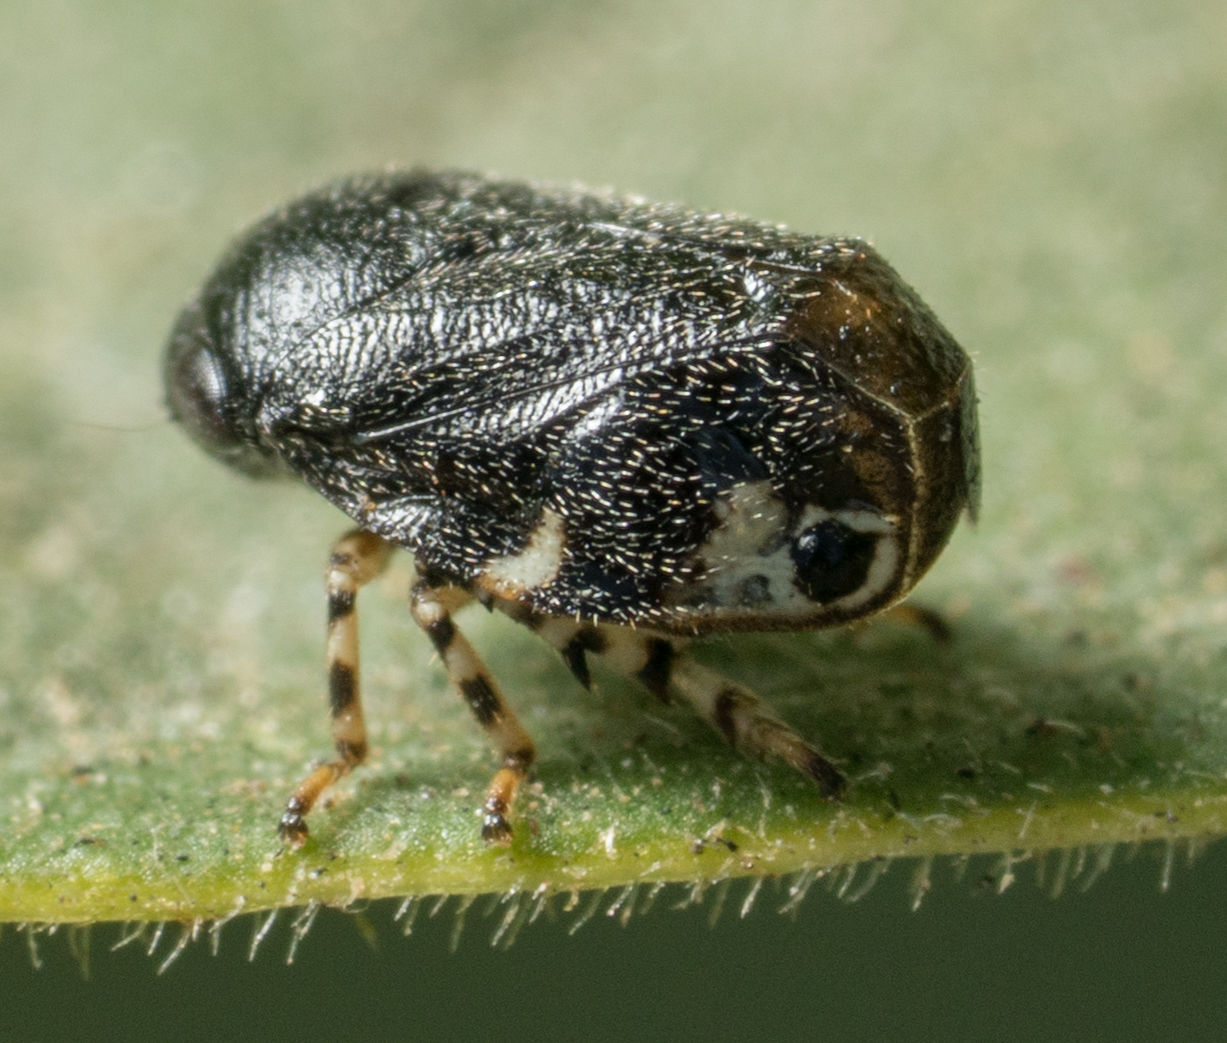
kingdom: Animalia
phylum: Arthropoda
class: Insecta
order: Hemiptera
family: Clastopteridae
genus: Clastoptera
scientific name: Clastoptera lineatocollis
